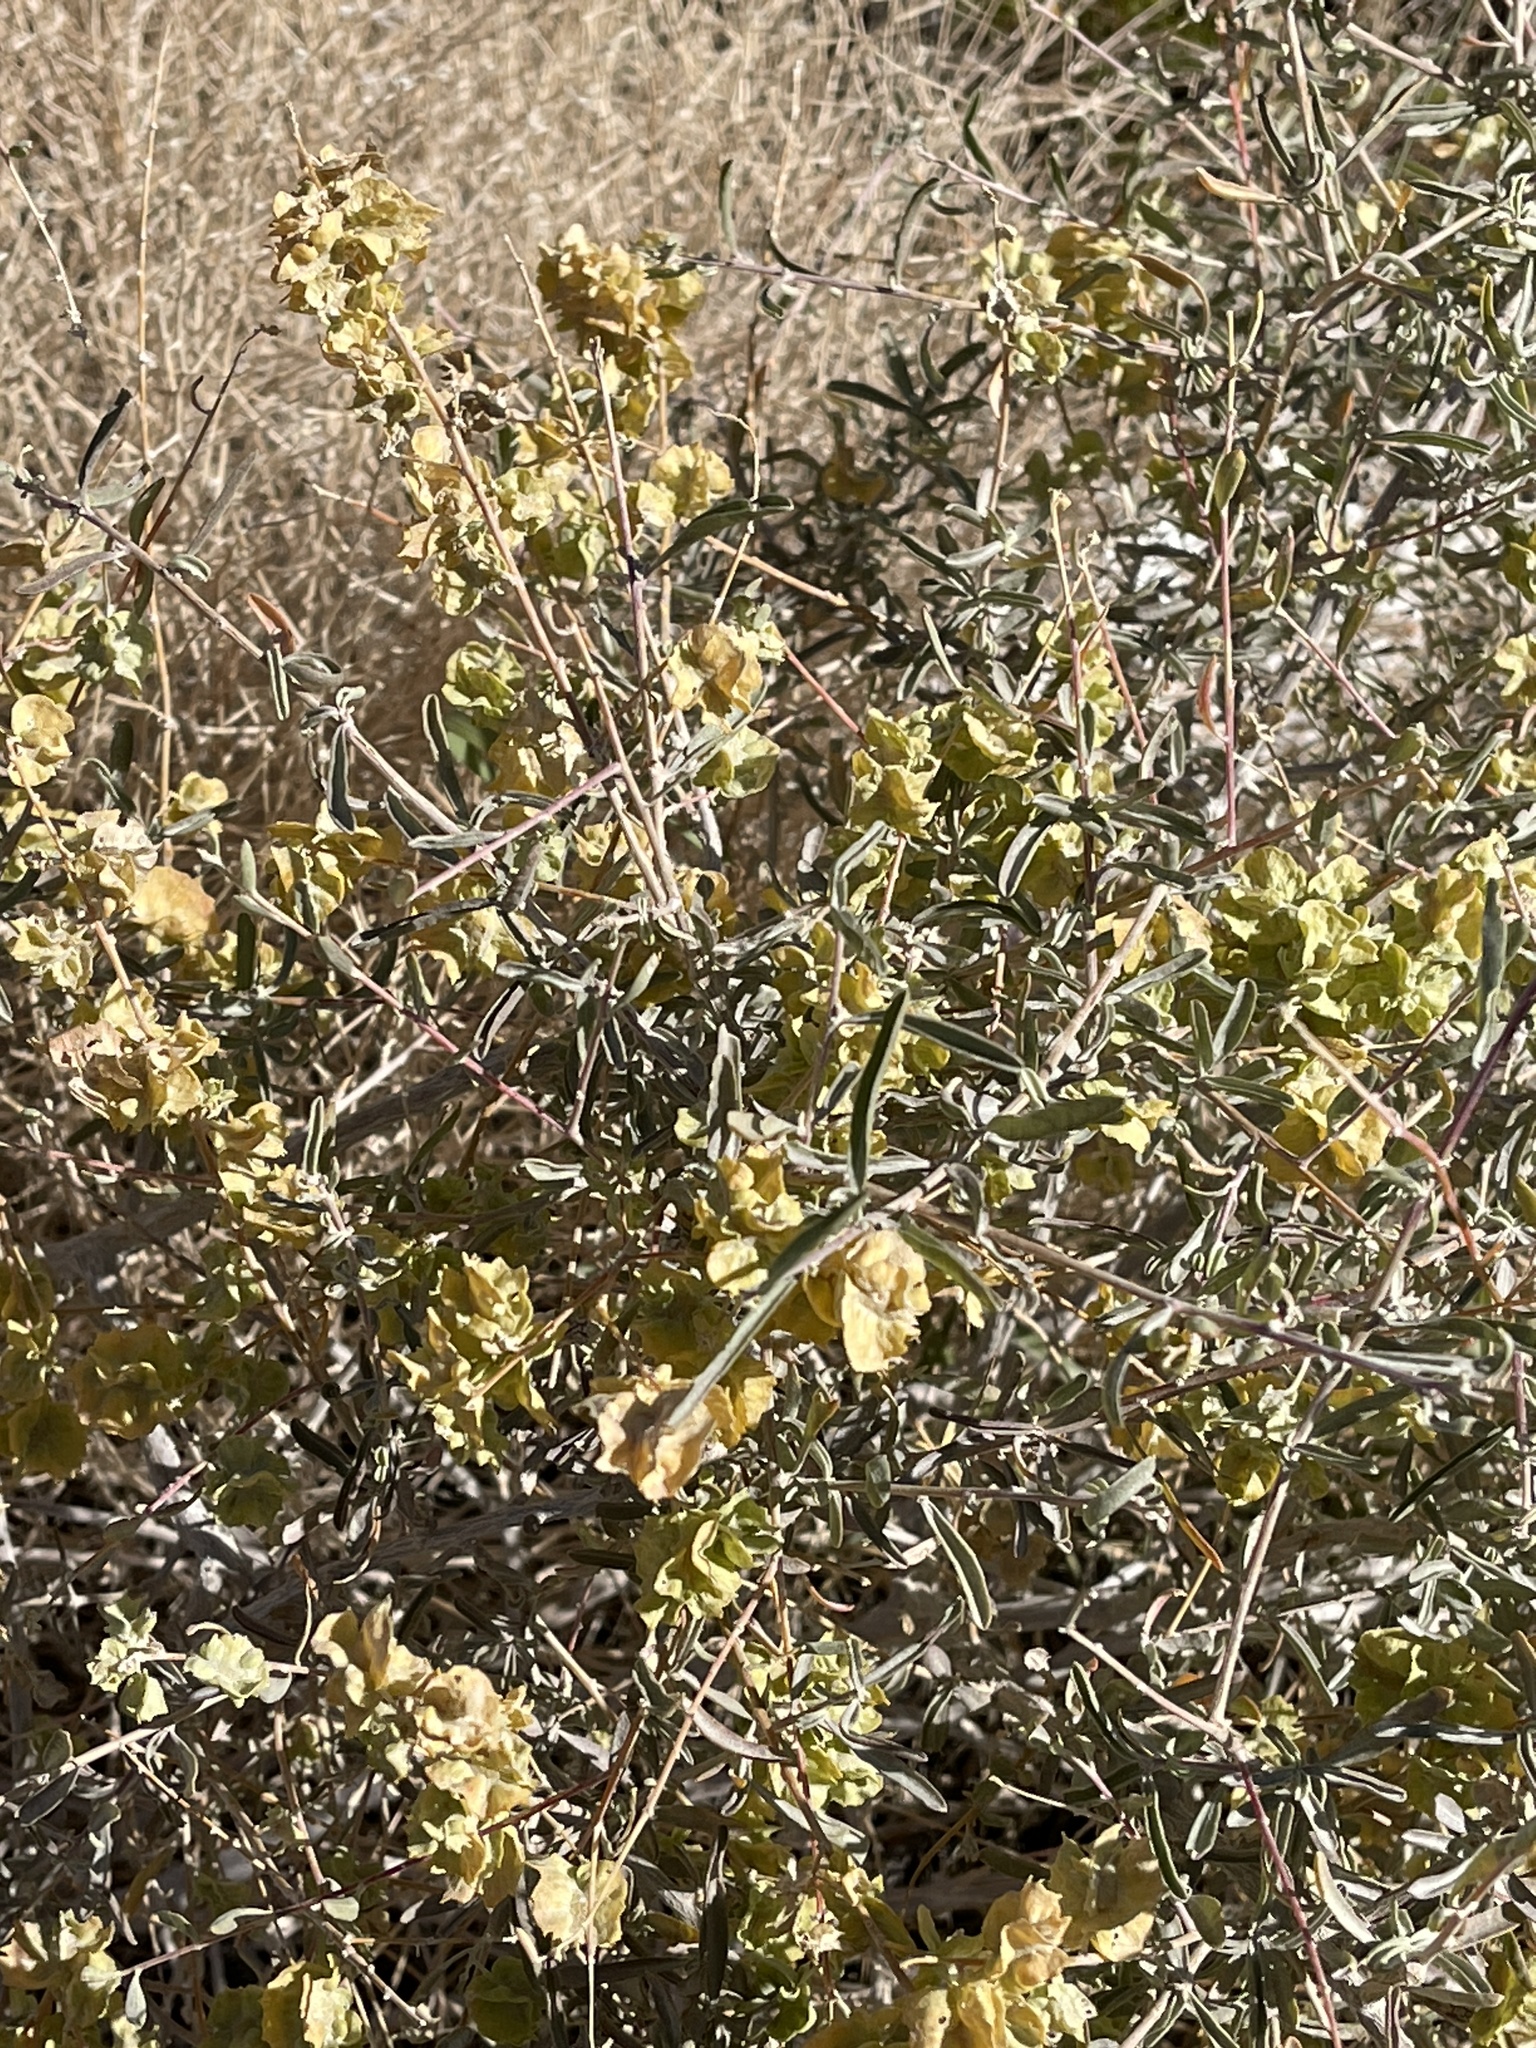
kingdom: Plantae
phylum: Tracheophyta
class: Magnoliopsida
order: Caryophyllales
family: Amaranthaceae
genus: Atriplex
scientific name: Atriplex canescens
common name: Four-wing saltbush
